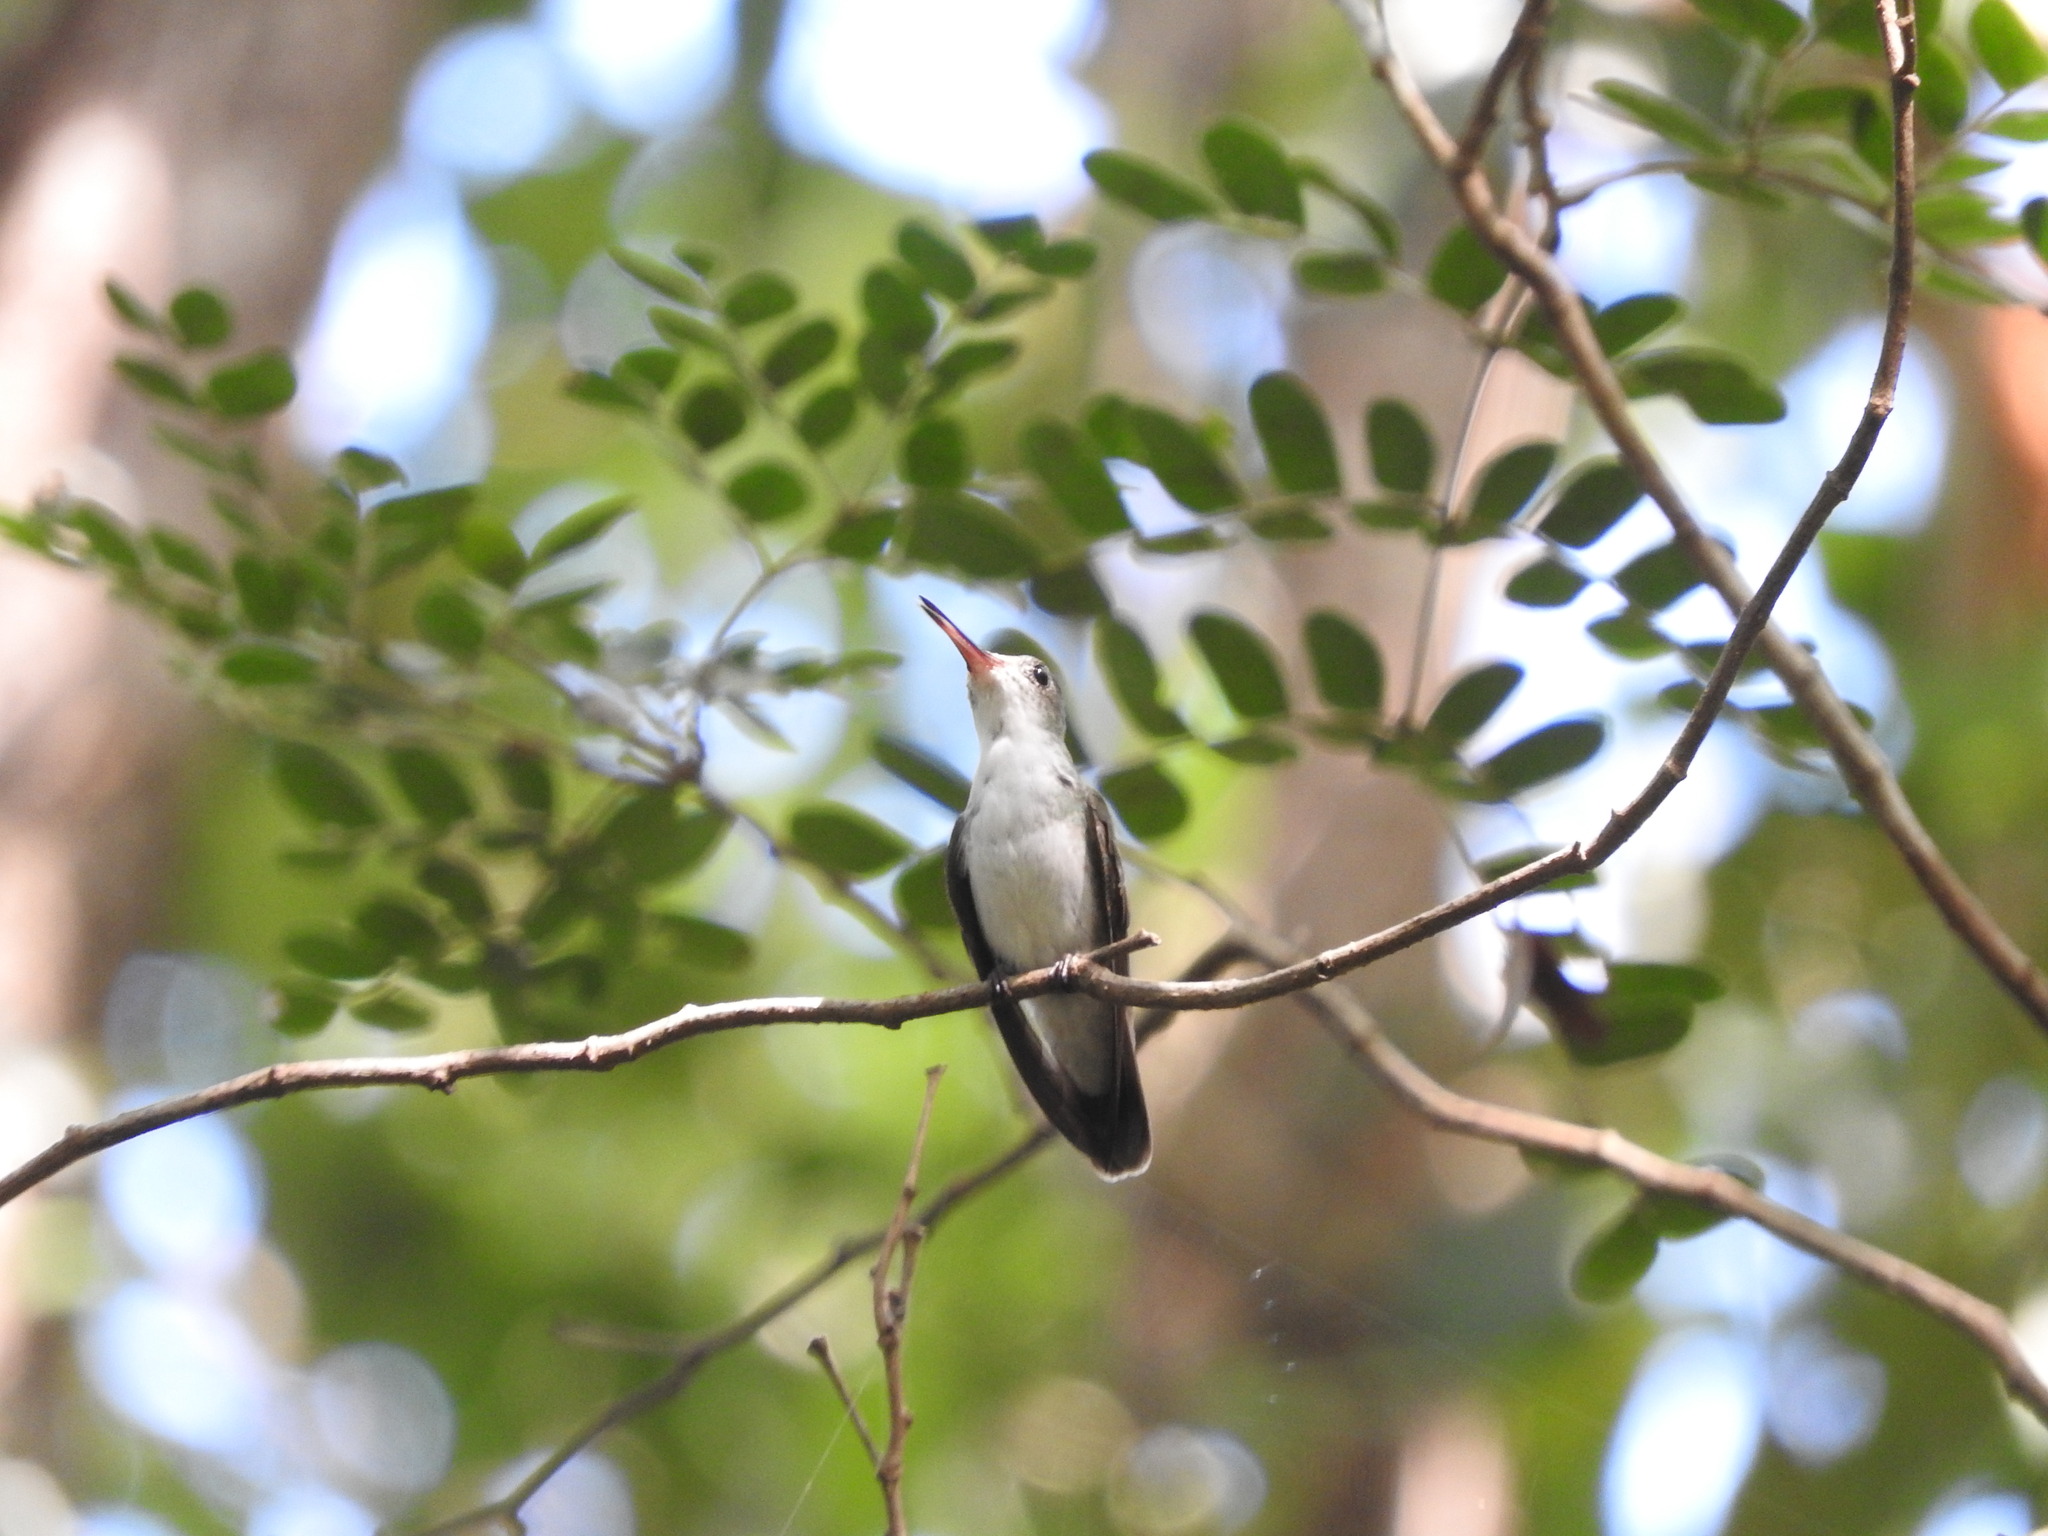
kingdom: Animalia
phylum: Chordata
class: Aves
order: Apodiformes
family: Trochilidae
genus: Chlorestes
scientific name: Chlorestes candida
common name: White-bellied emerald
